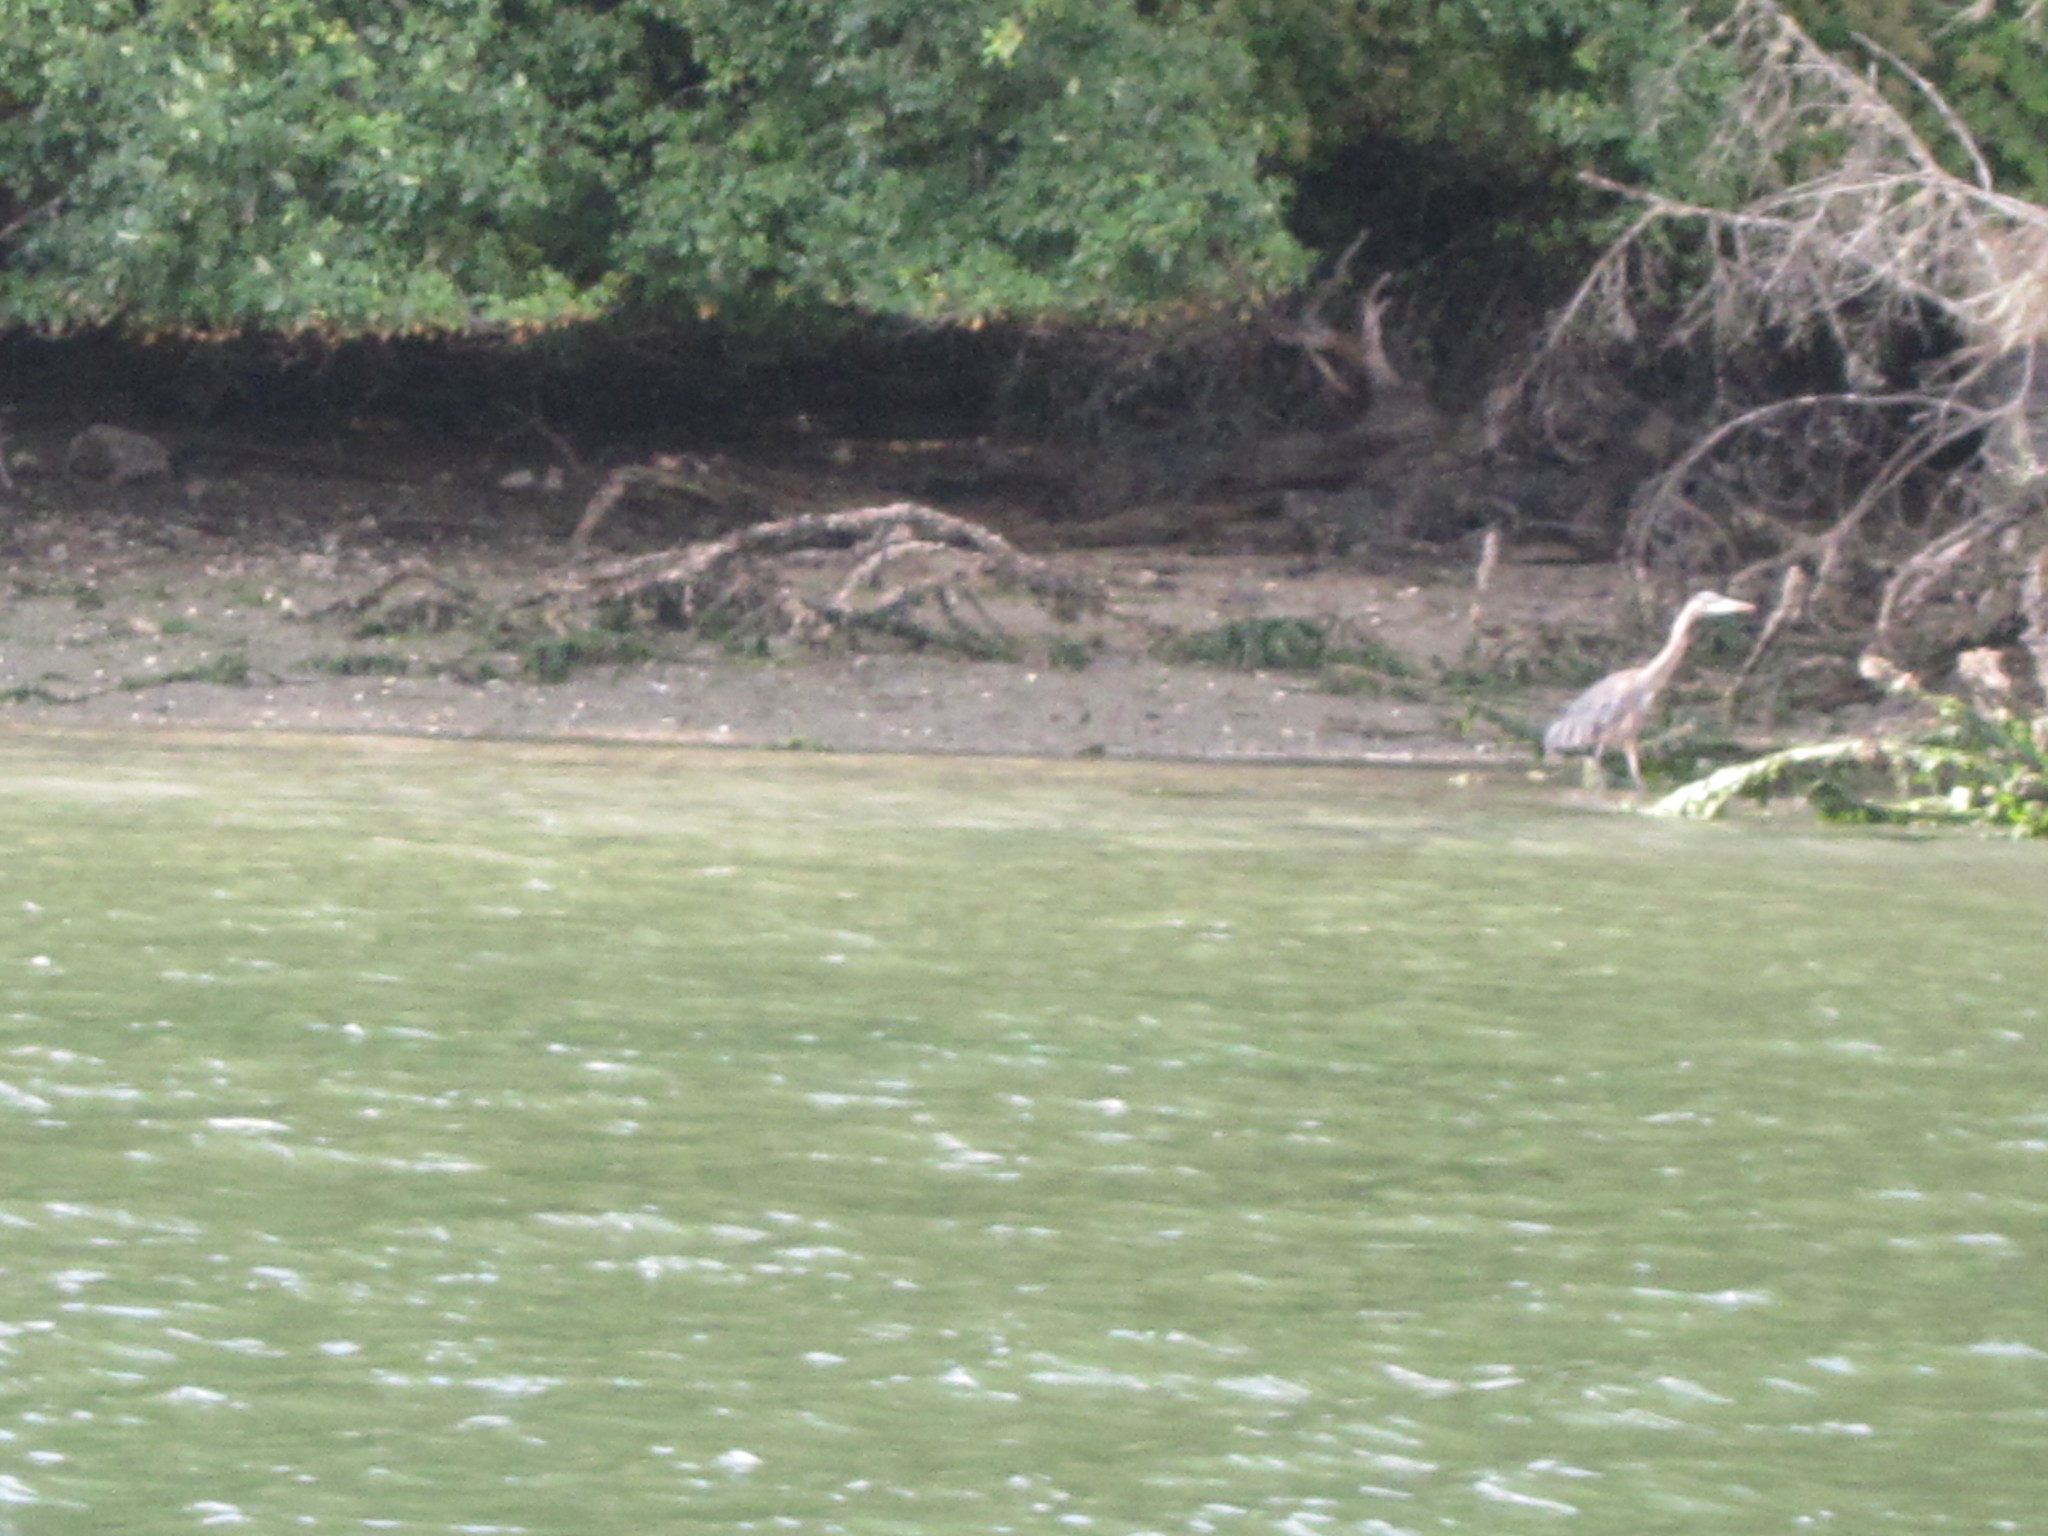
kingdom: Animalia
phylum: Chordata
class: Aves
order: Pelecaniformes
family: Ardeidae
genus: Ardea
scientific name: Ardea herodias
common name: Great blue heron
